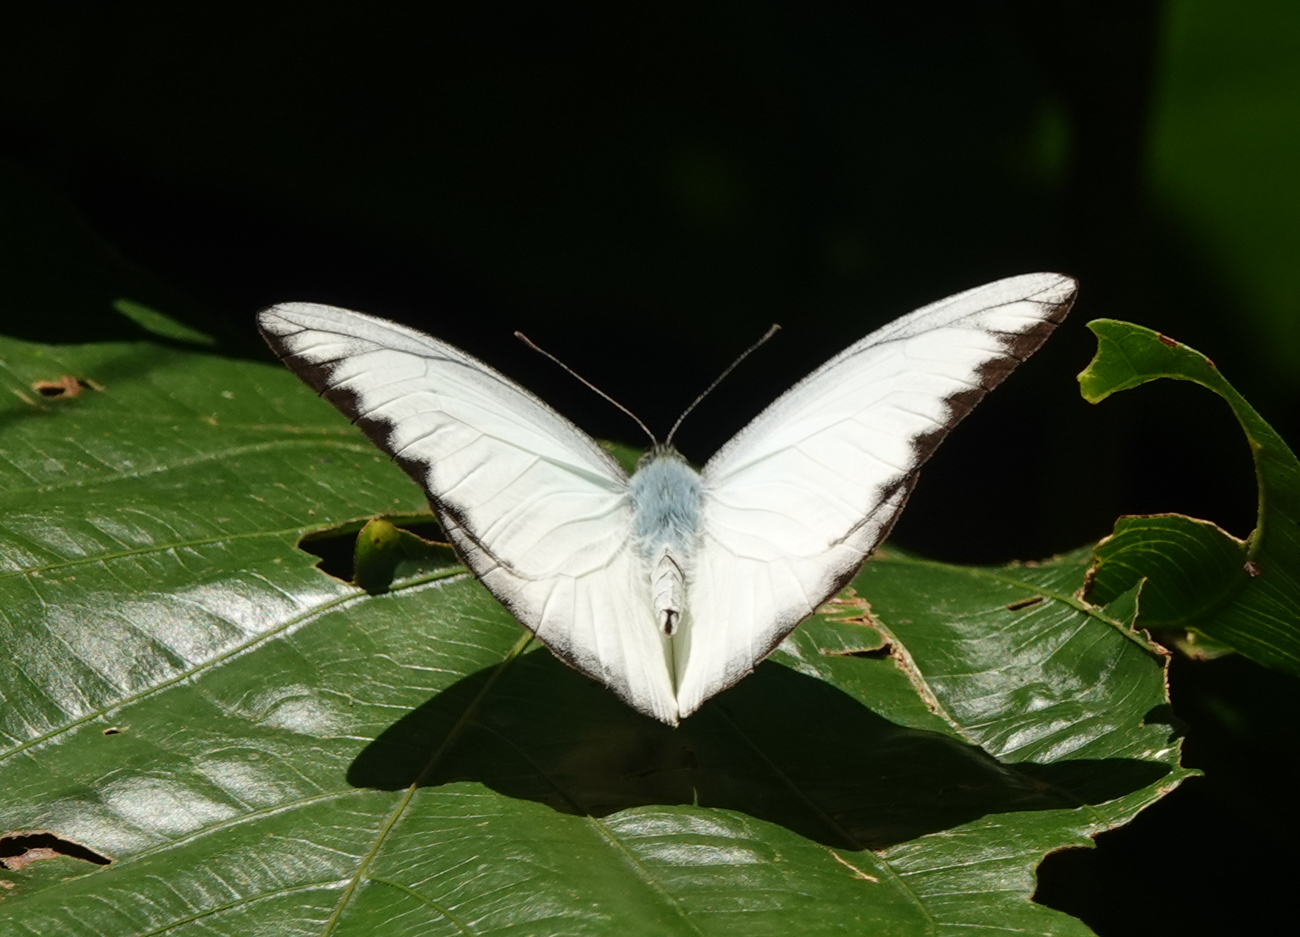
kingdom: Animalia
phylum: Arthropoda
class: Insecta
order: Lepidoptera
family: Pieridae
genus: Appias
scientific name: Appias albina
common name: Common albatross
